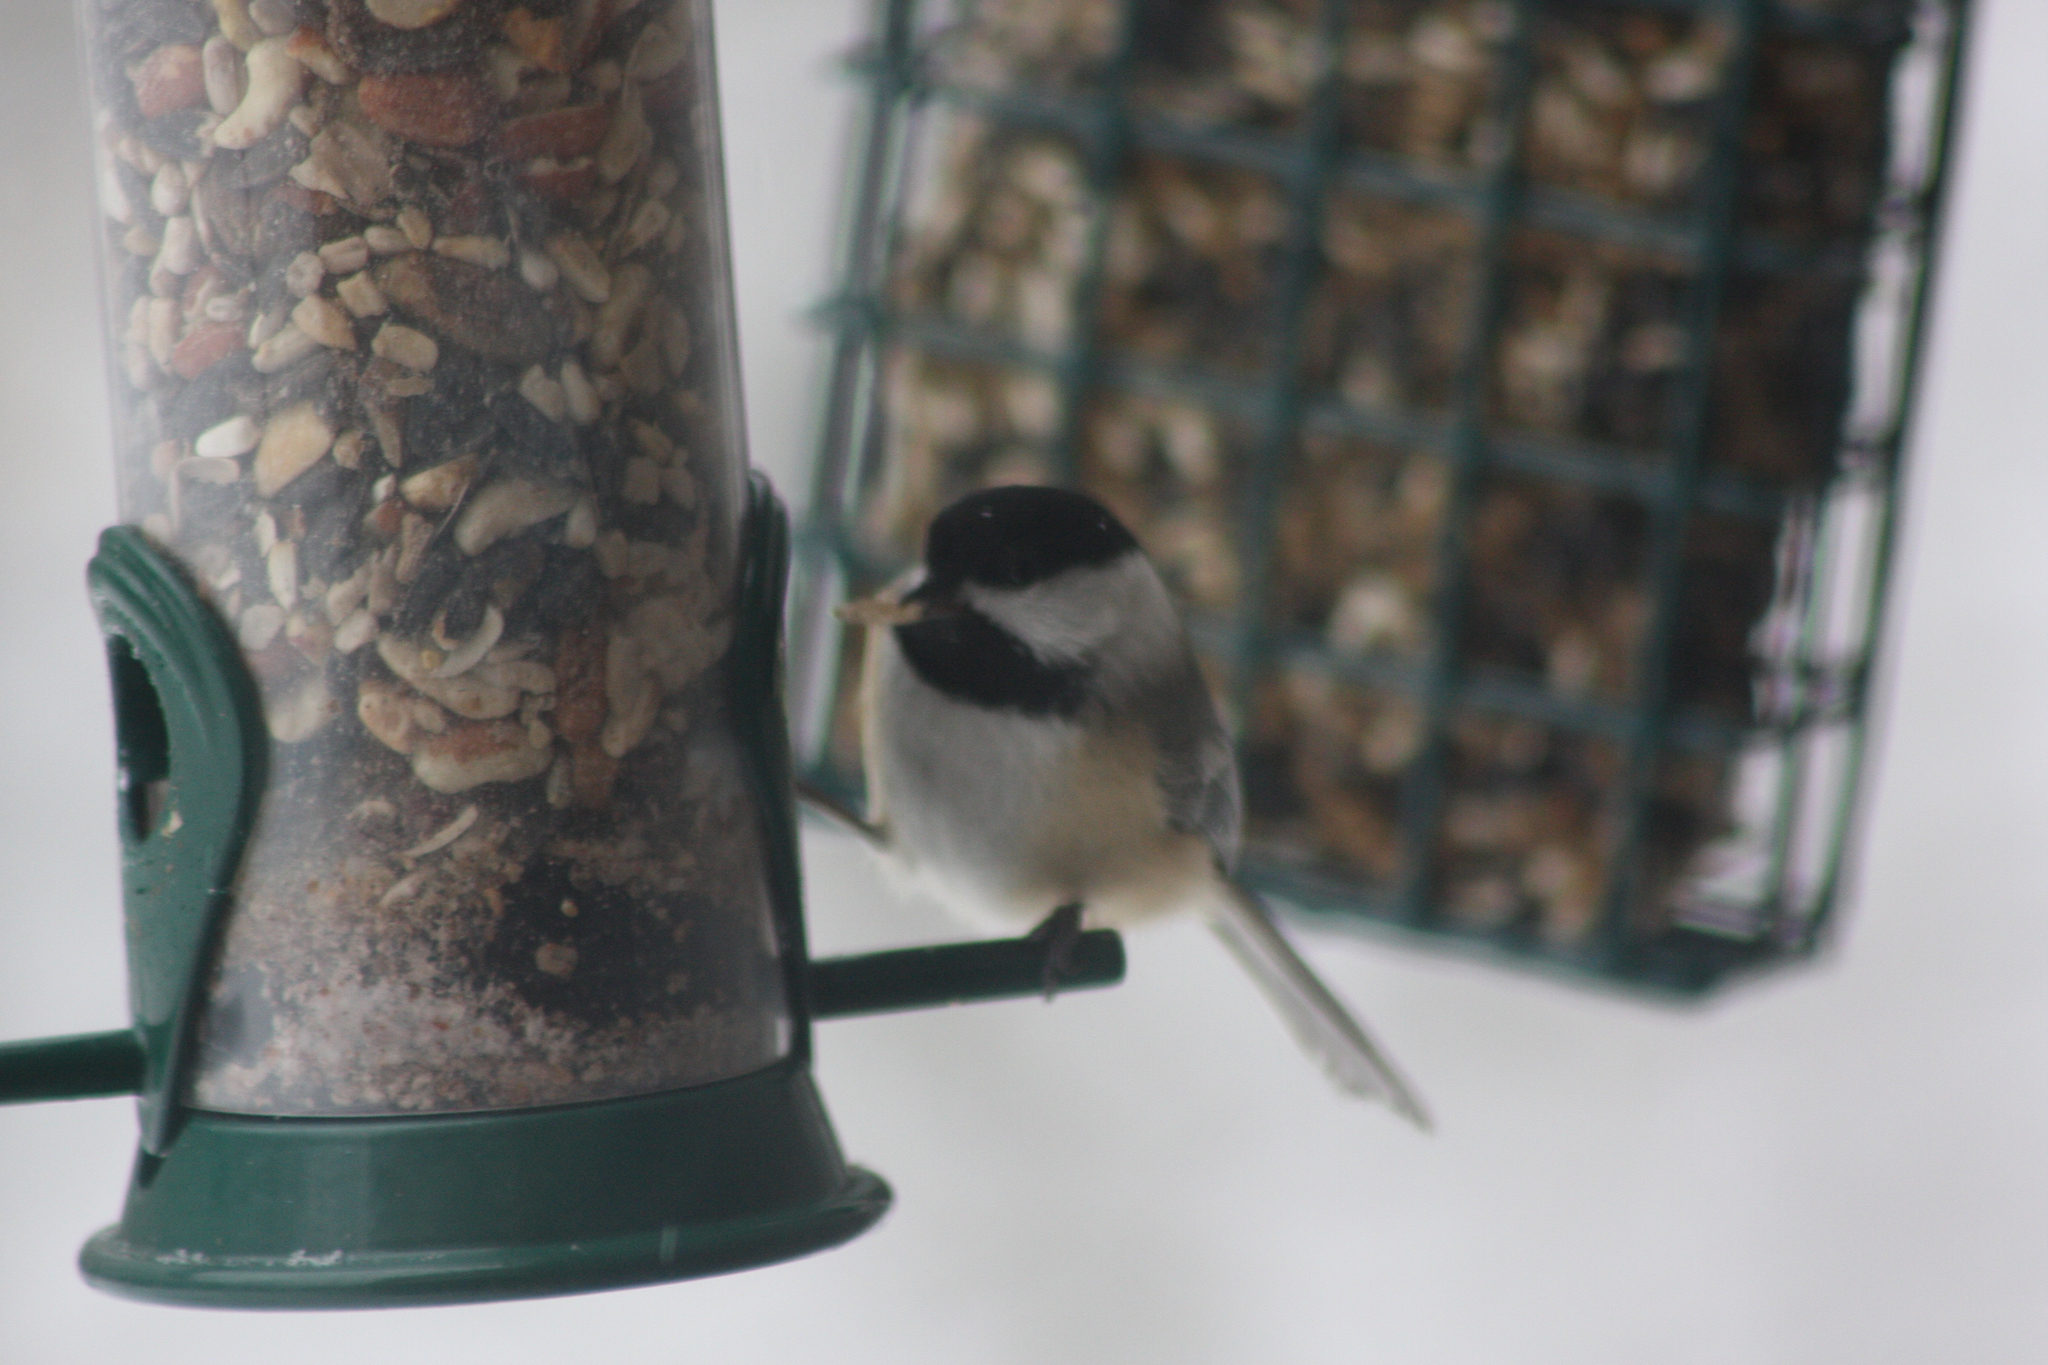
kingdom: Animalia
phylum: Chordata
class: Aves
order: Passeriformes
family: Paridae
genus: Poecile
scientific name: Poecile atricapillus
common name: Black-capped chickadee
